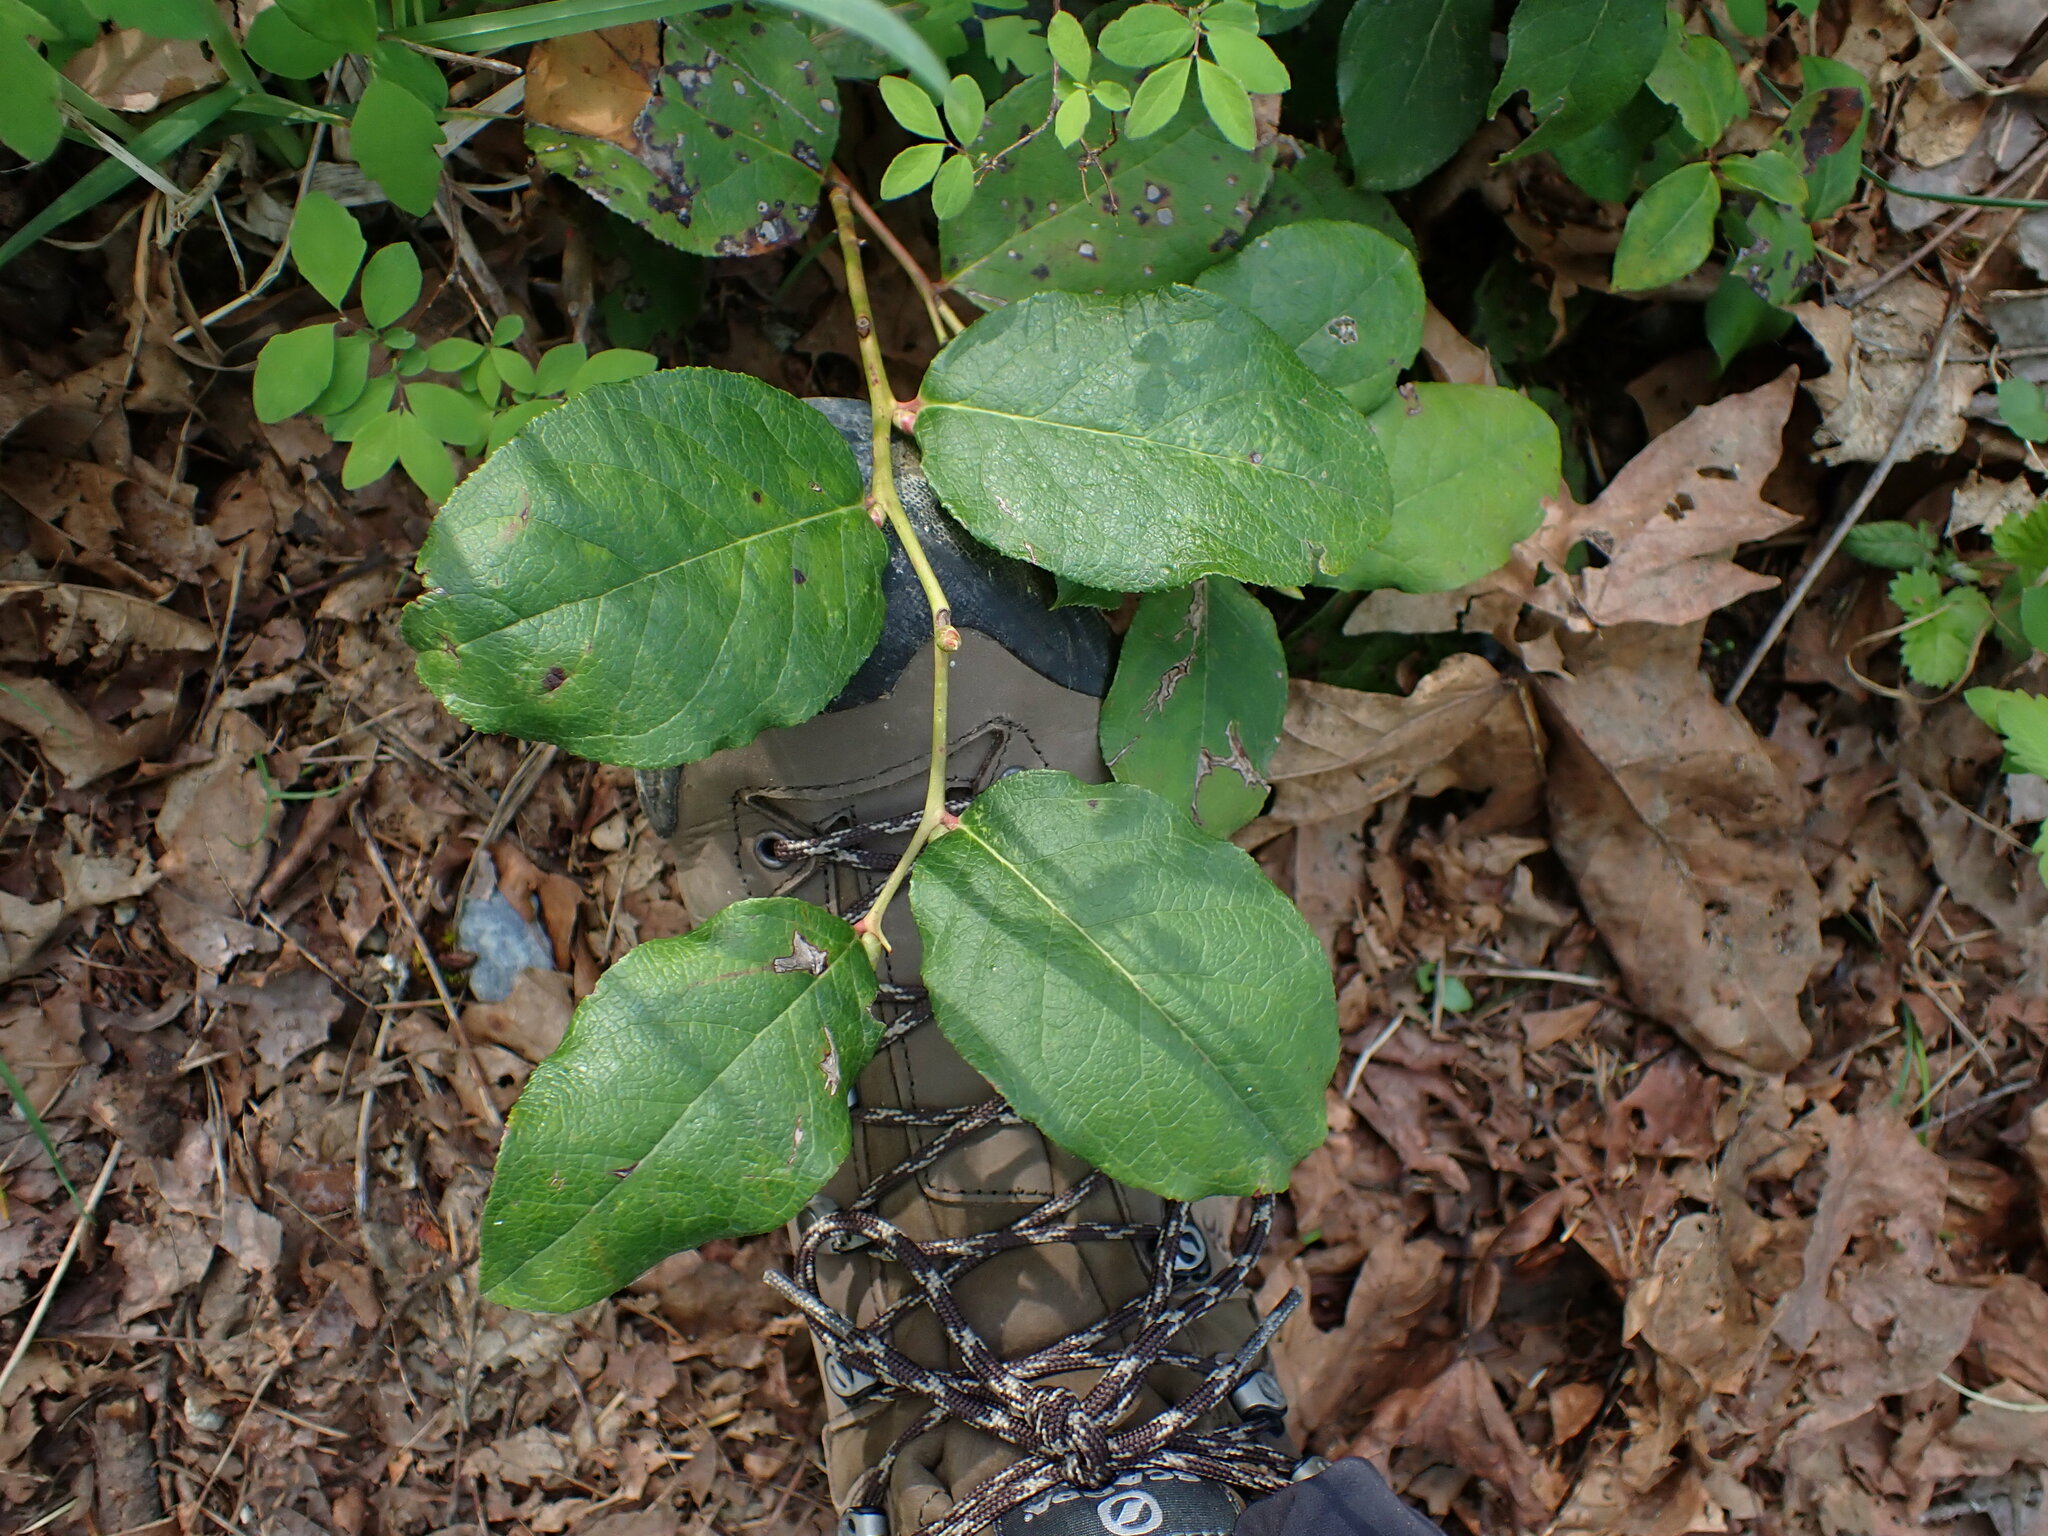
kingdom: Plantae
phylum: Tracheophyta
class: Magnoliopsida
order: Ericales
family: Ericaceae
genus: Gaultheria
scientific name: Gaultheria shallon
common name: Shallon
